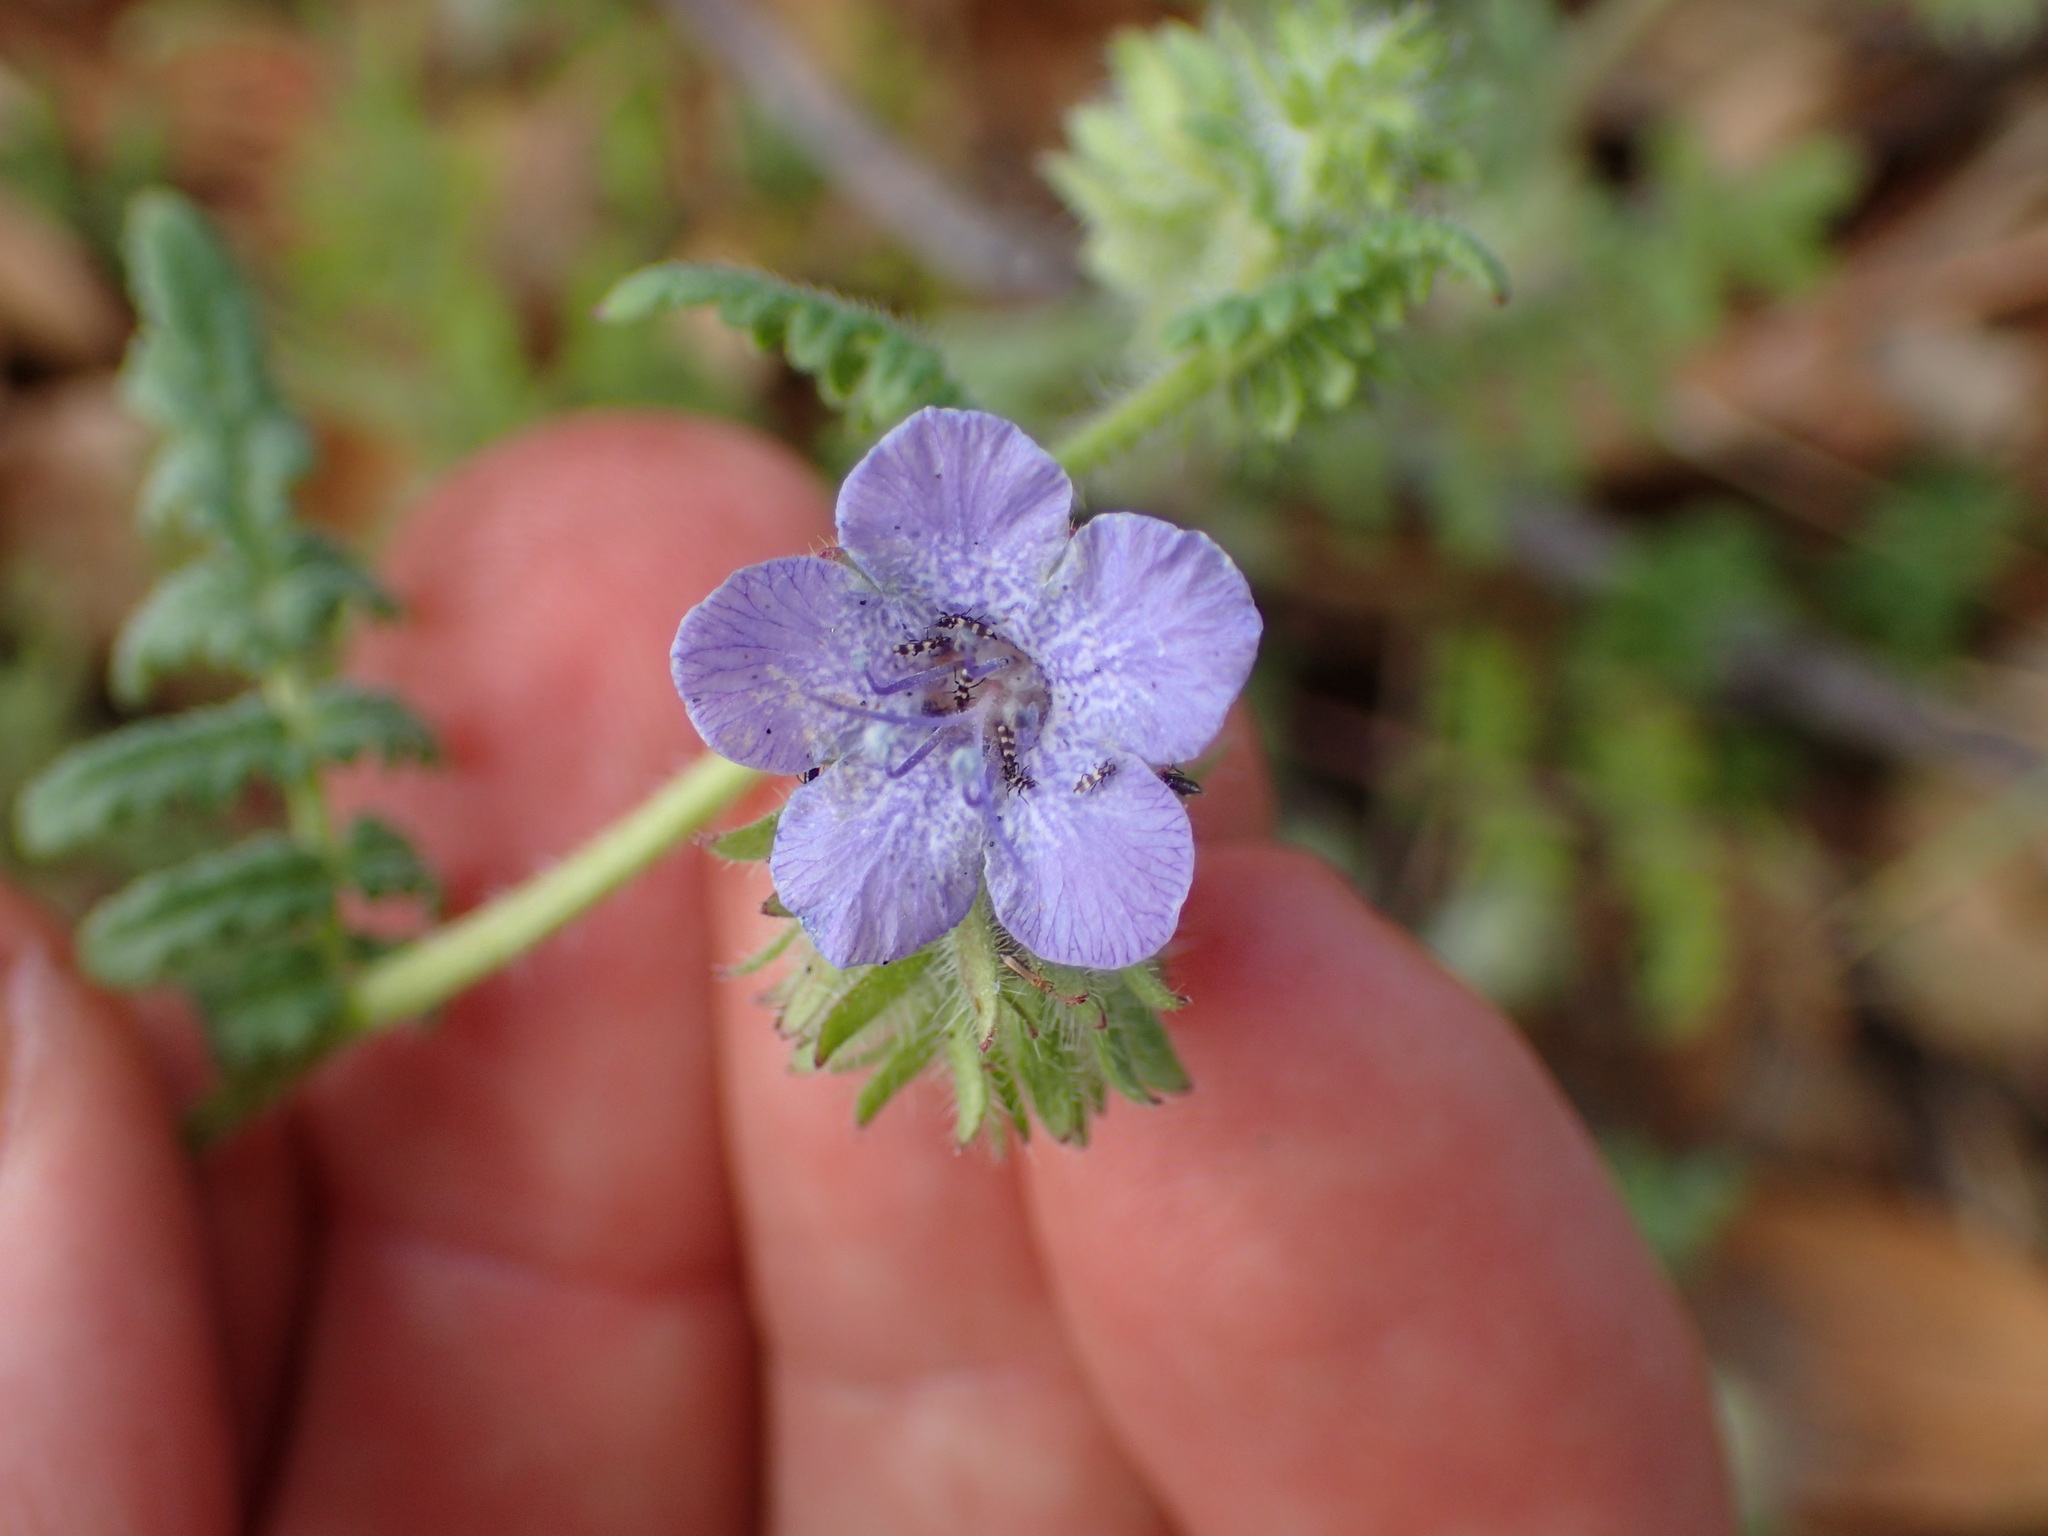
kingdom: Plantae
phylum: Tracheophyta
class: Magnoliopsida
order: Boraginales
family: Hydrophyllaceae
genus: Phacelia
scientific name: Phacelia distans
